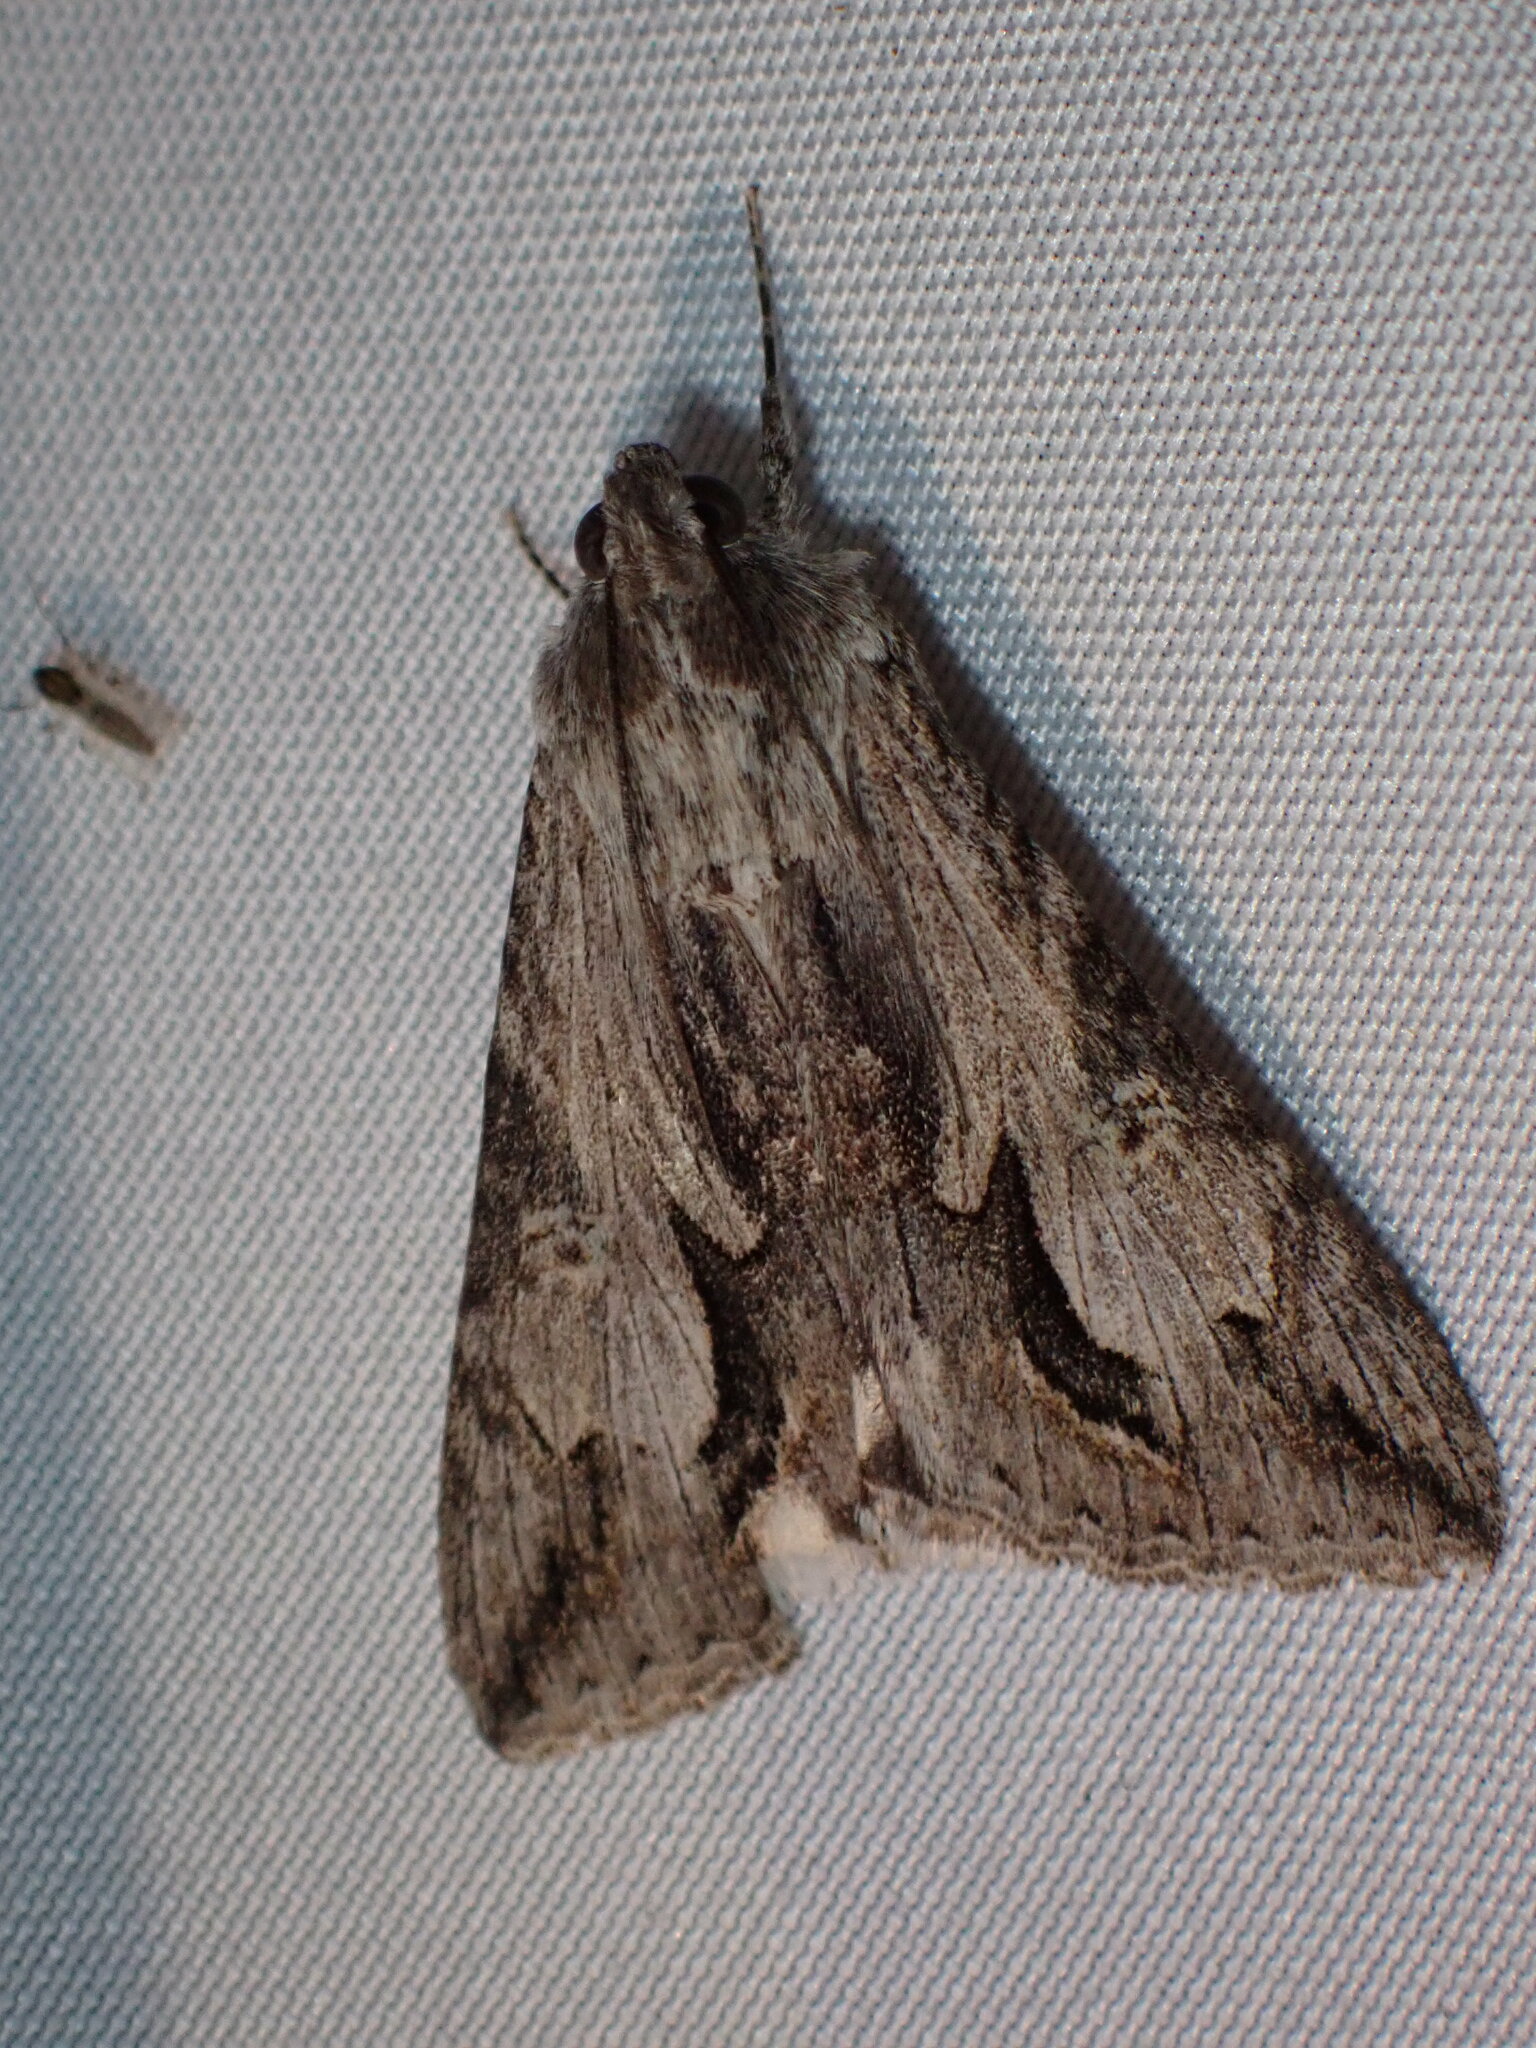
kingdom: Animalia
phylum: Arthropoda
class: Insecta
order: Lepidoptera
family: Erebidae
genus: Melipotis
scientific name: Melipotis jucunda
